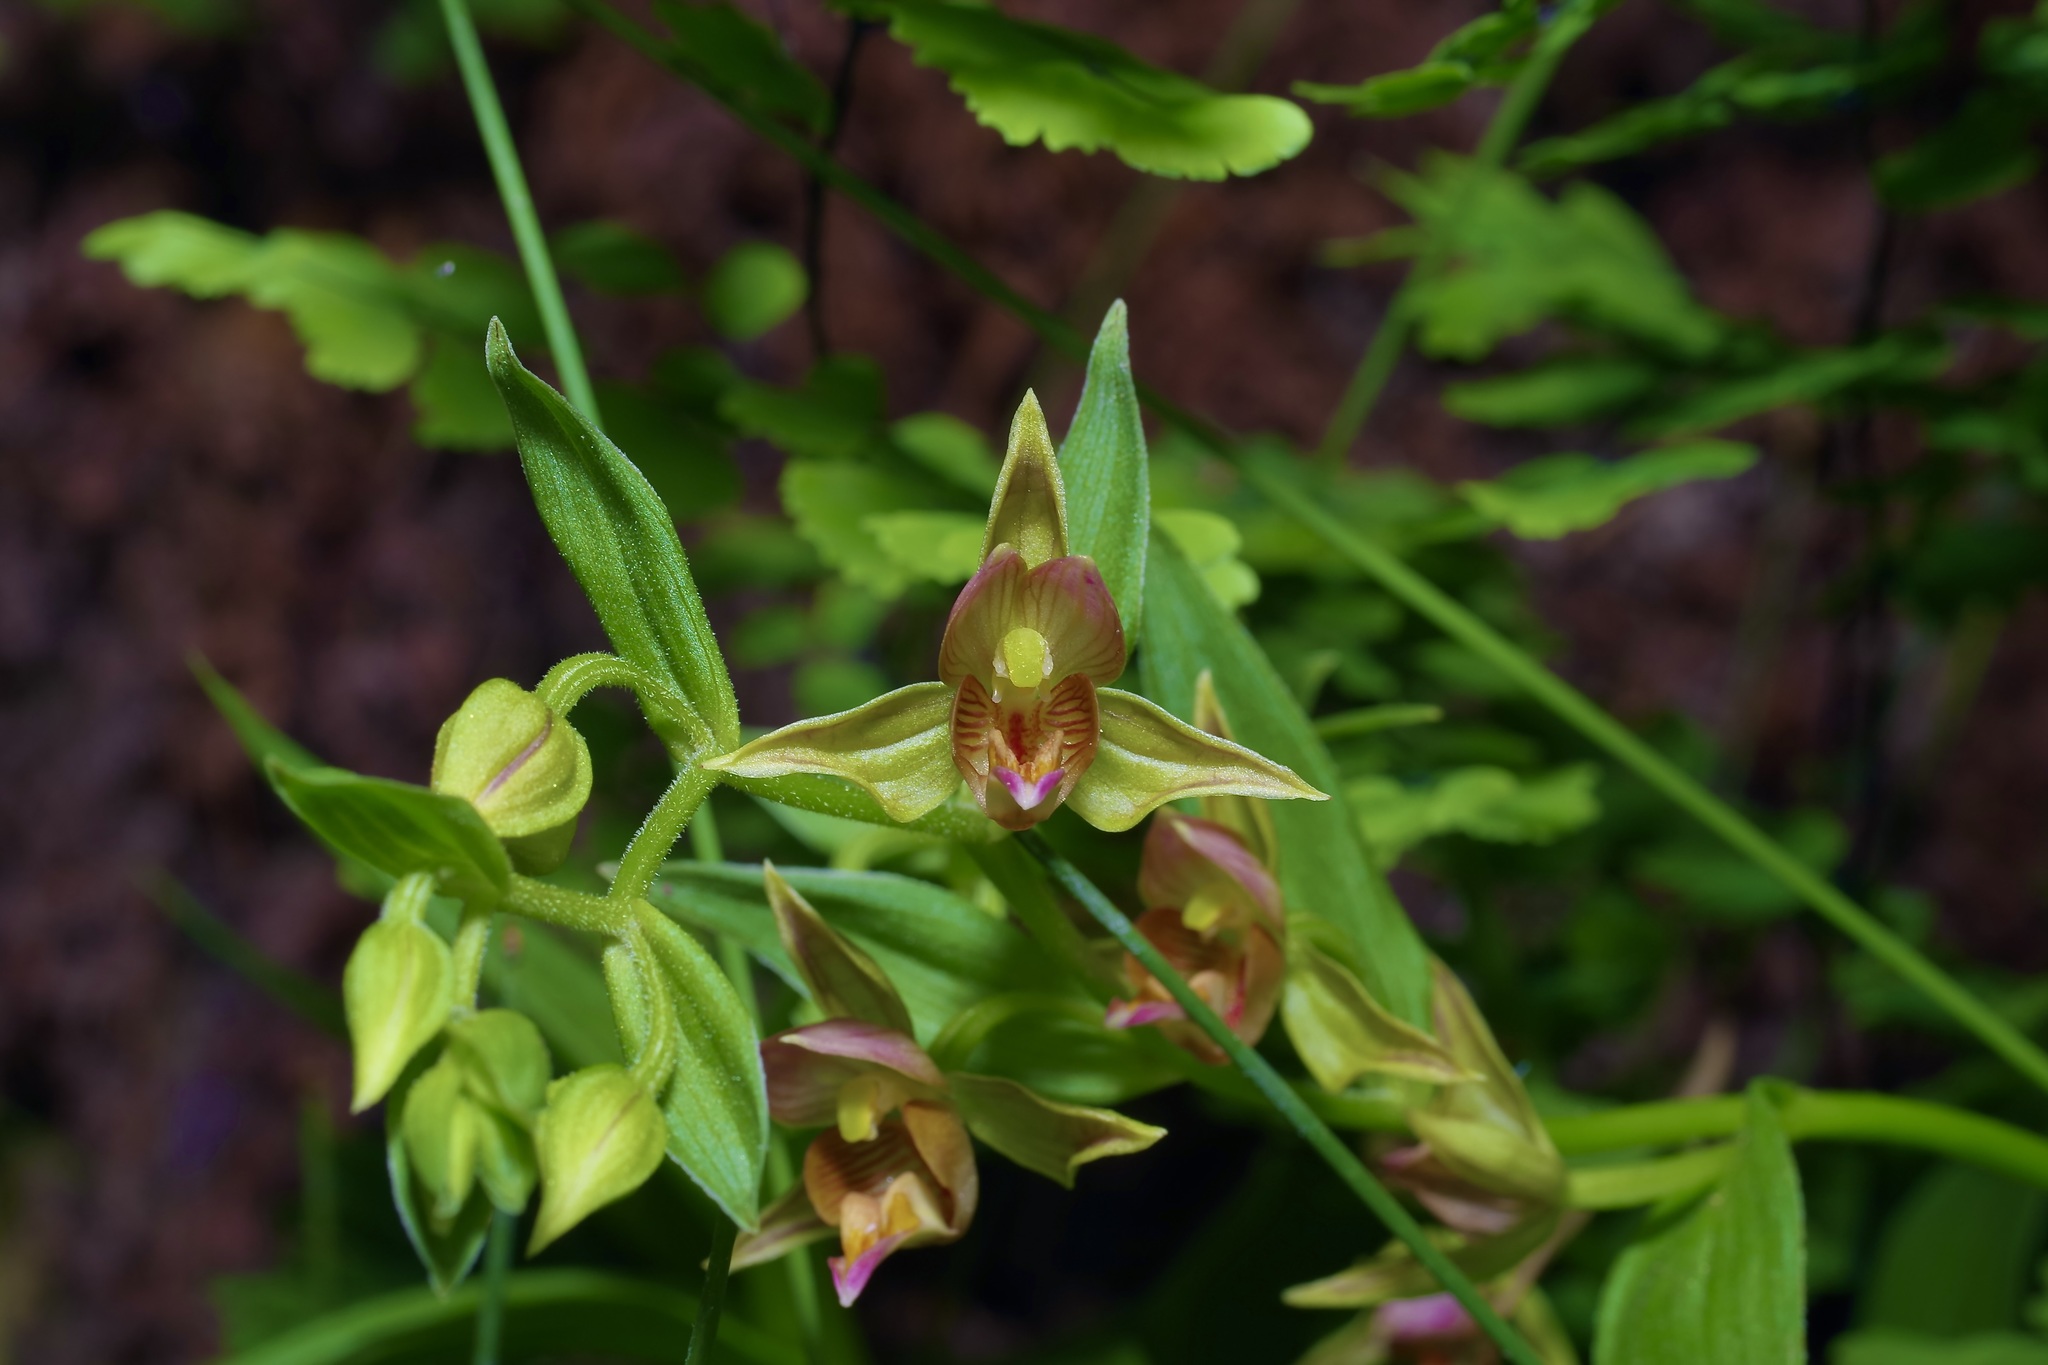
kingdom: Plantae
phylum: Tracheophyta
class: Liliopsida
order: Asparagales
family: Orchidaceae
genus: Epipactis
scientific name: Epipactis gigantea
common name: Chatterbox
